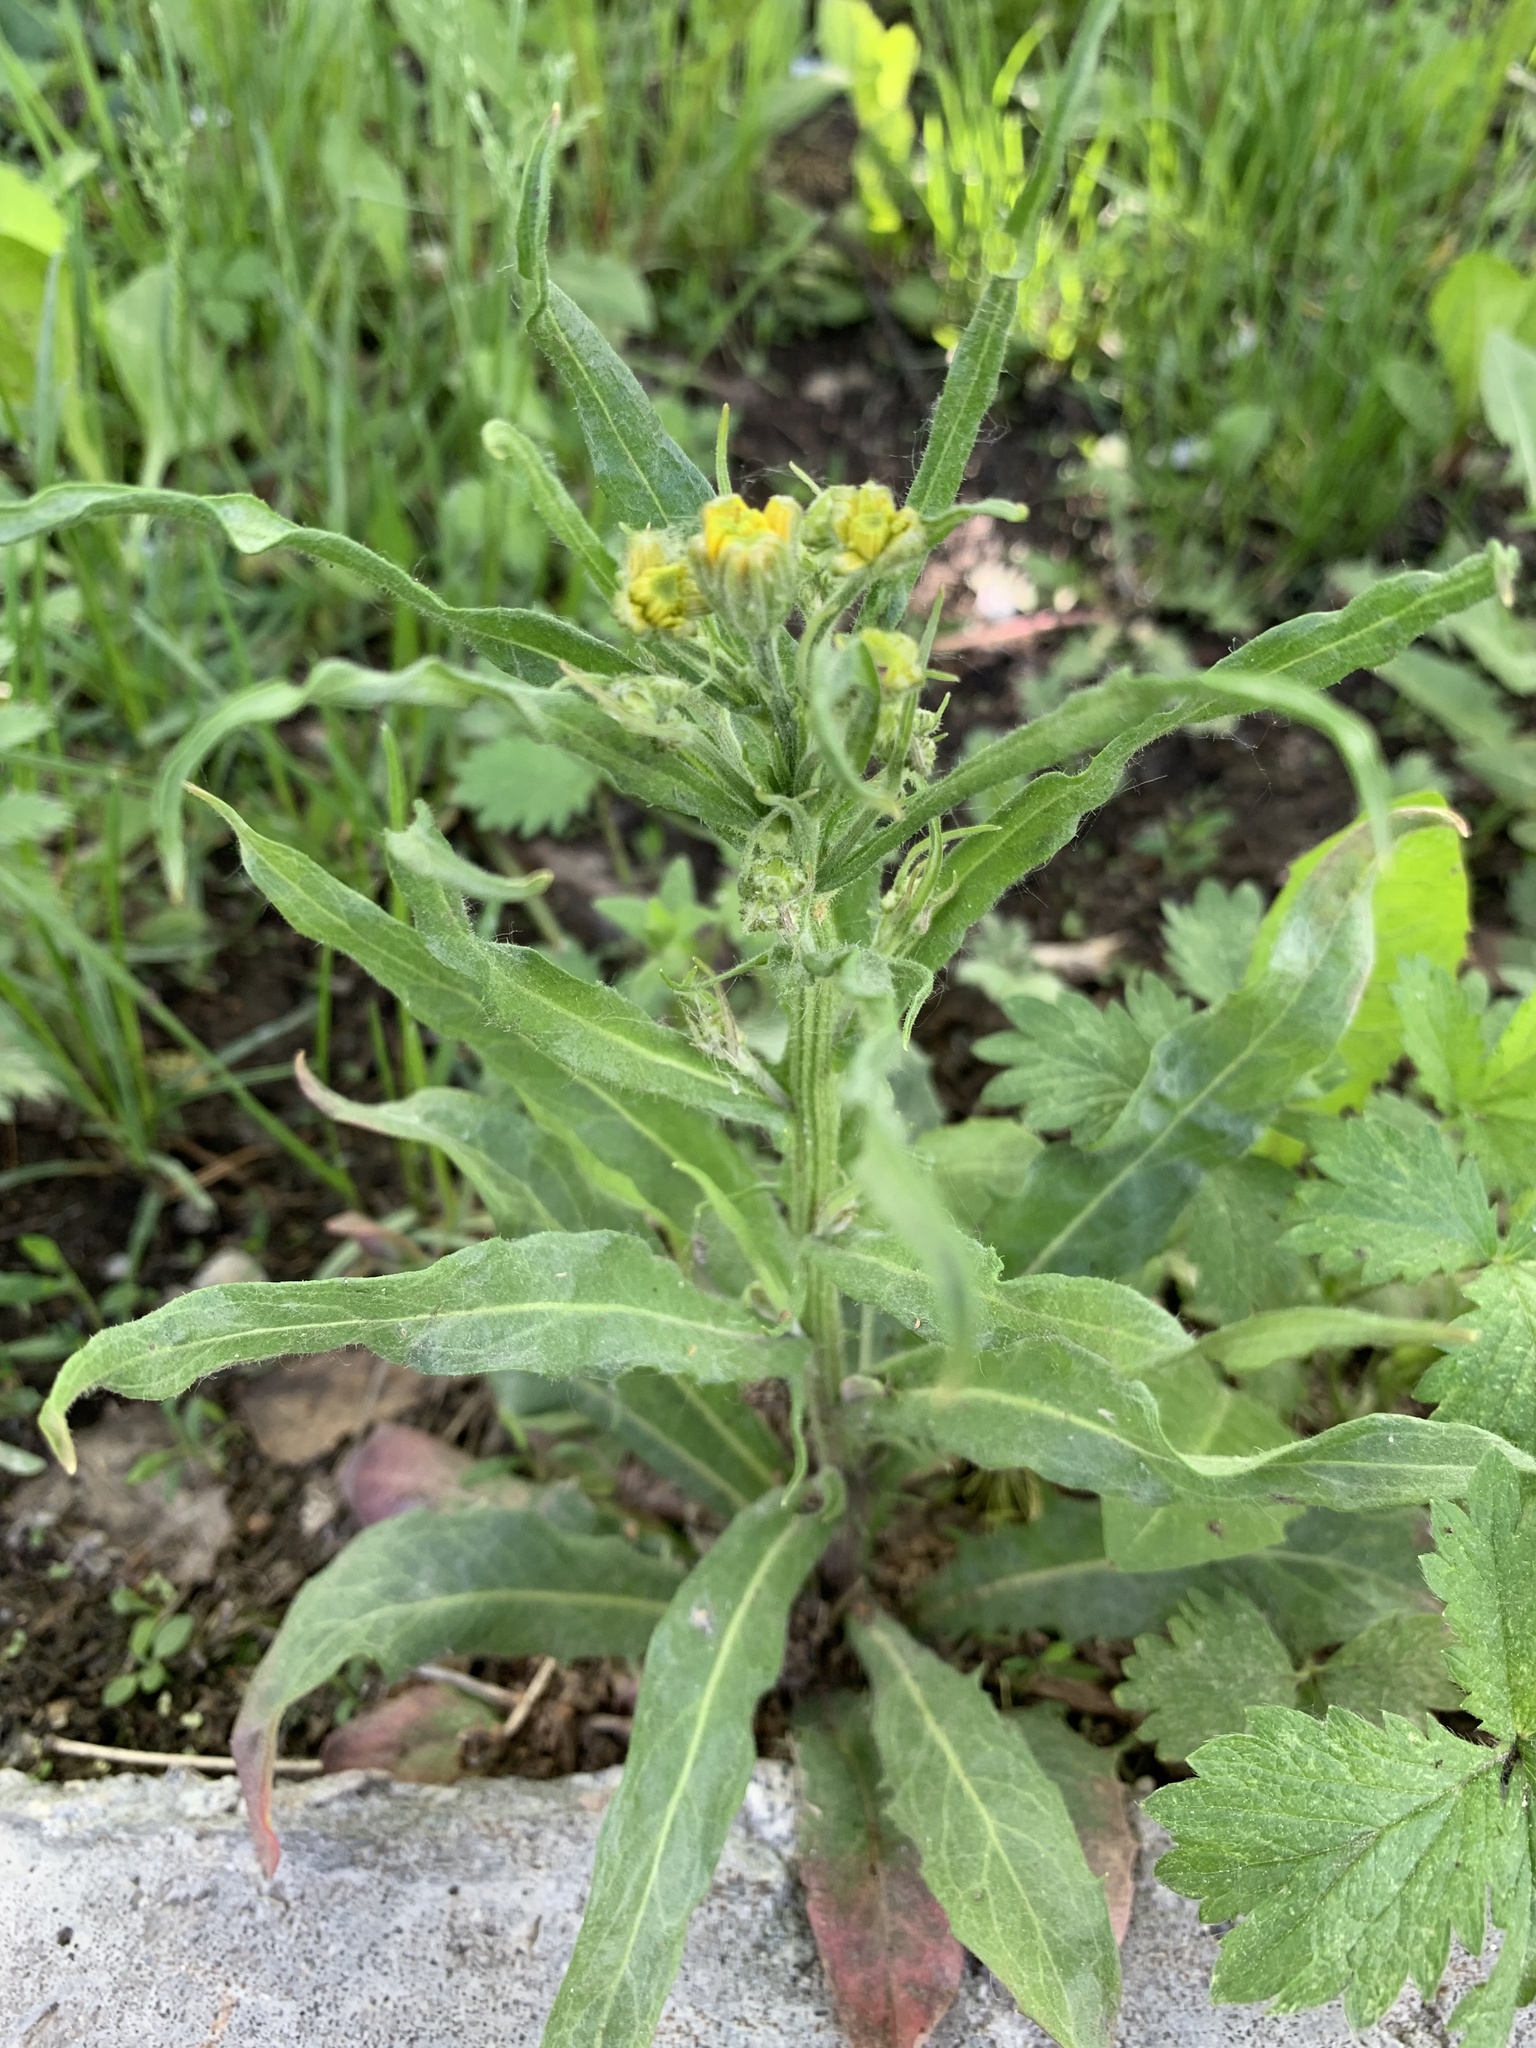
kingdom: Plantae
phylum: Tracheophyta
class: Magnoliopsida
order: Asterales
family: Asteraceae
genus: Crepis
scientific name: Crepis tectorum
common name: Narrow-leaved hawk's-beard
